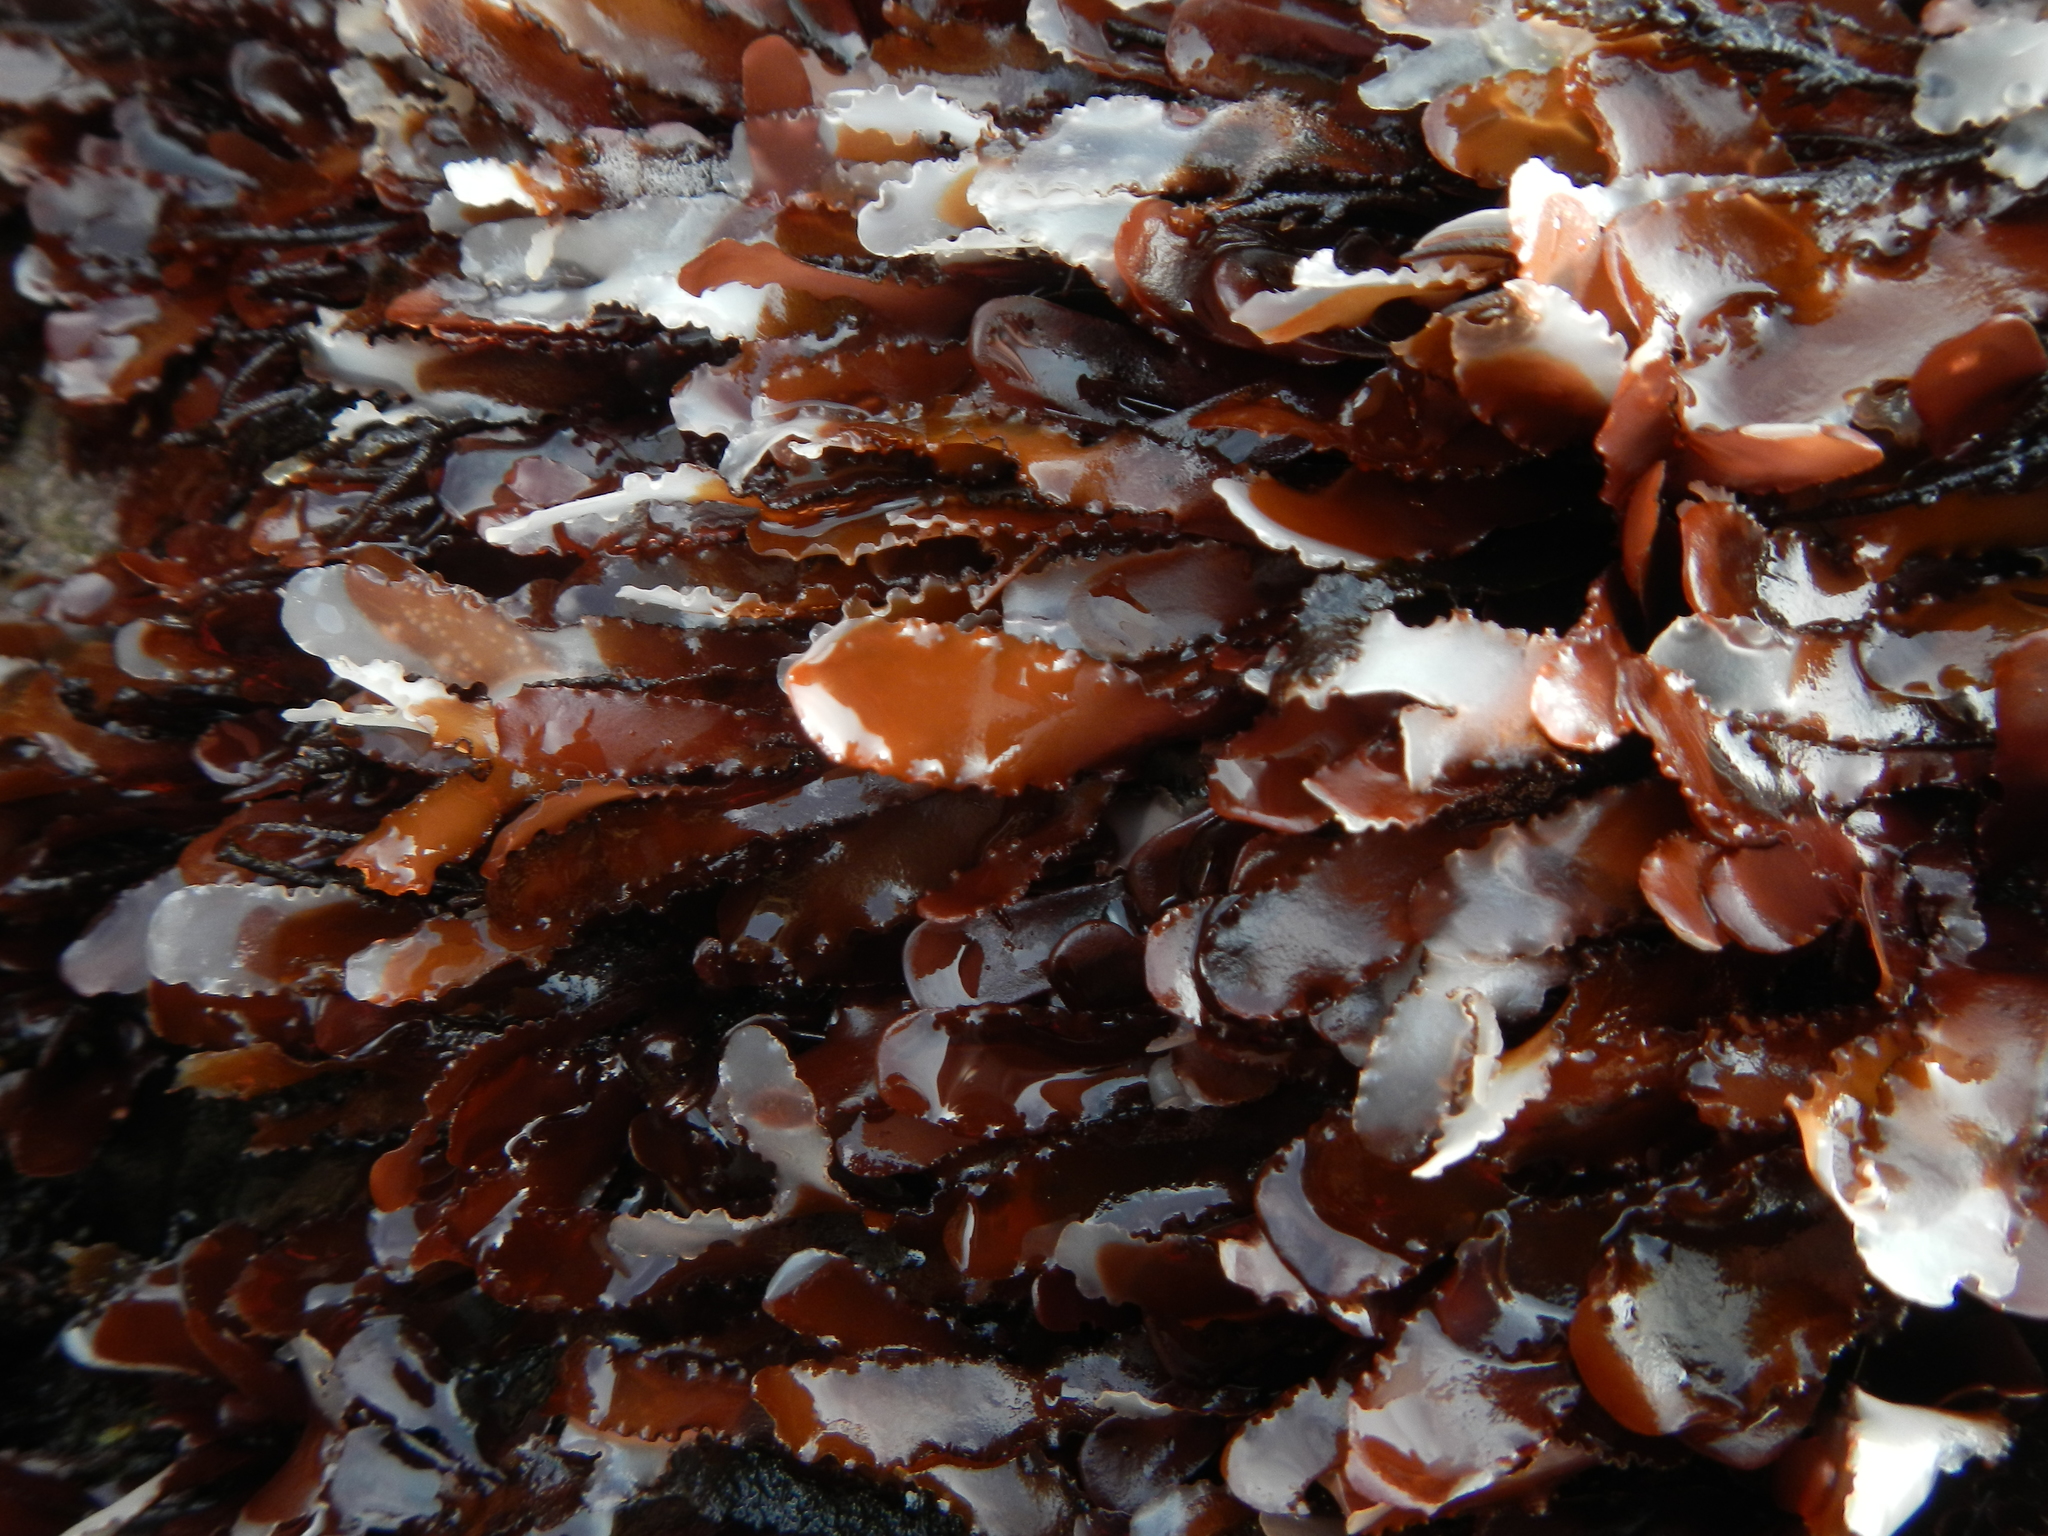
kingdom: Plantae
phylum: Rhodophyta
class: Florideophyceae
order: Gigartinales
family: Phyllophoraceae
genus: Schottera
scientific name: Schottera nicaeensis
